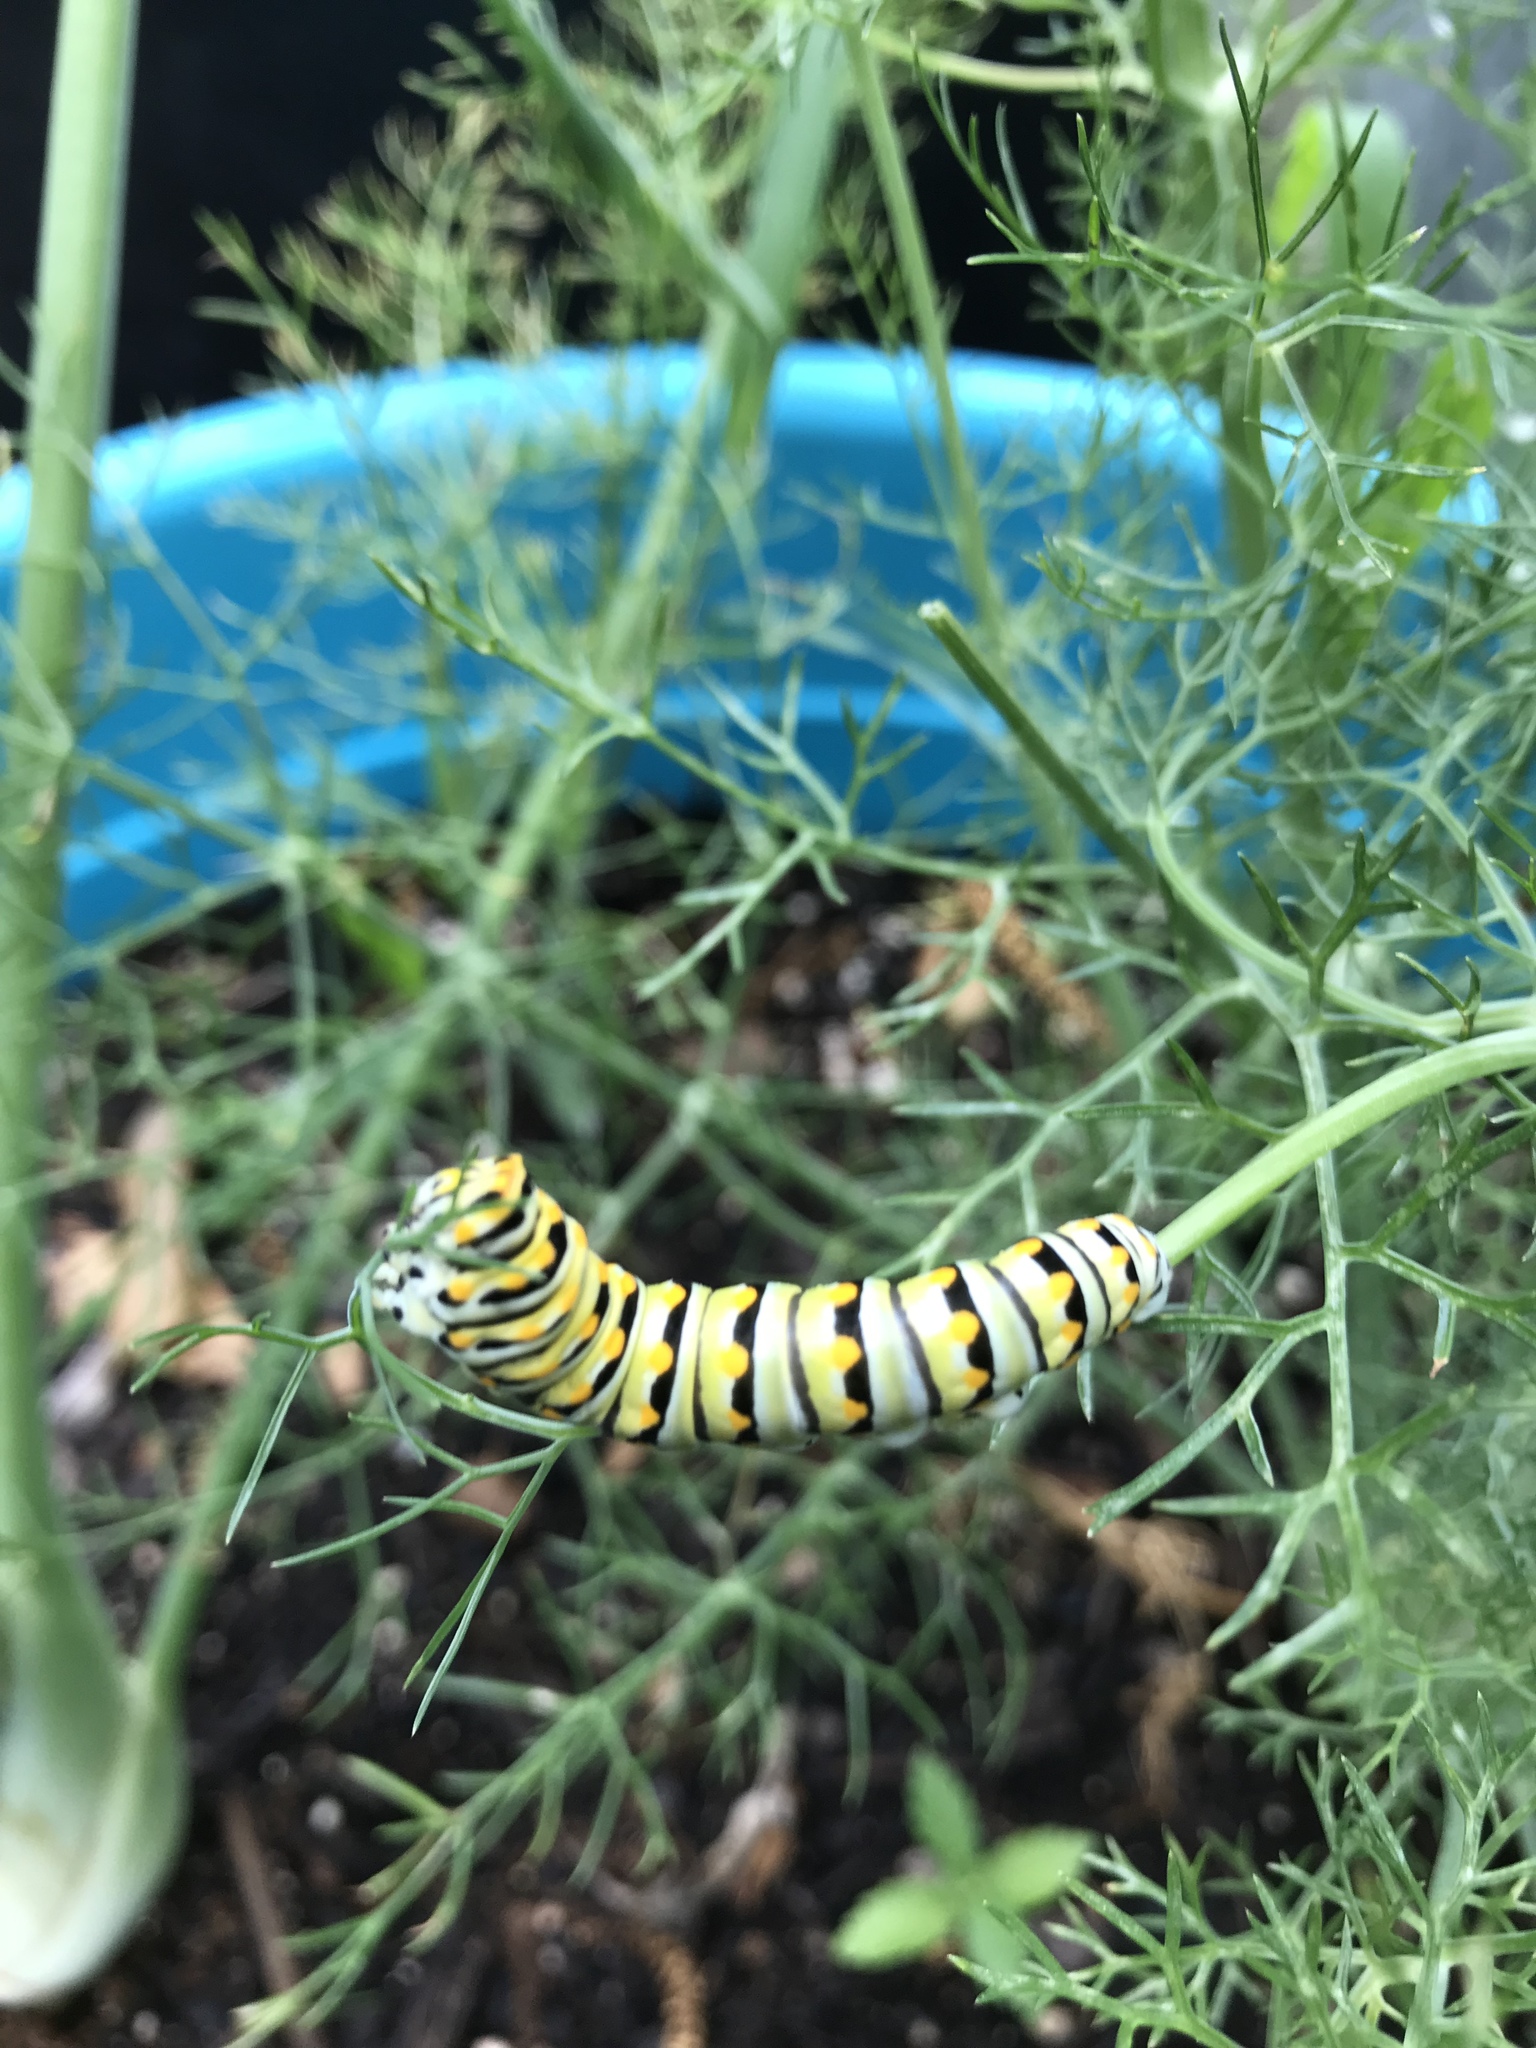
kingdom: Animalia
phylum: Arthropoda
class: Insecta
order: Lepidoptera
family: Papilionidae
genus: Papilio
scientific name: Papilio polyxenes
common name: Black swallowtail
